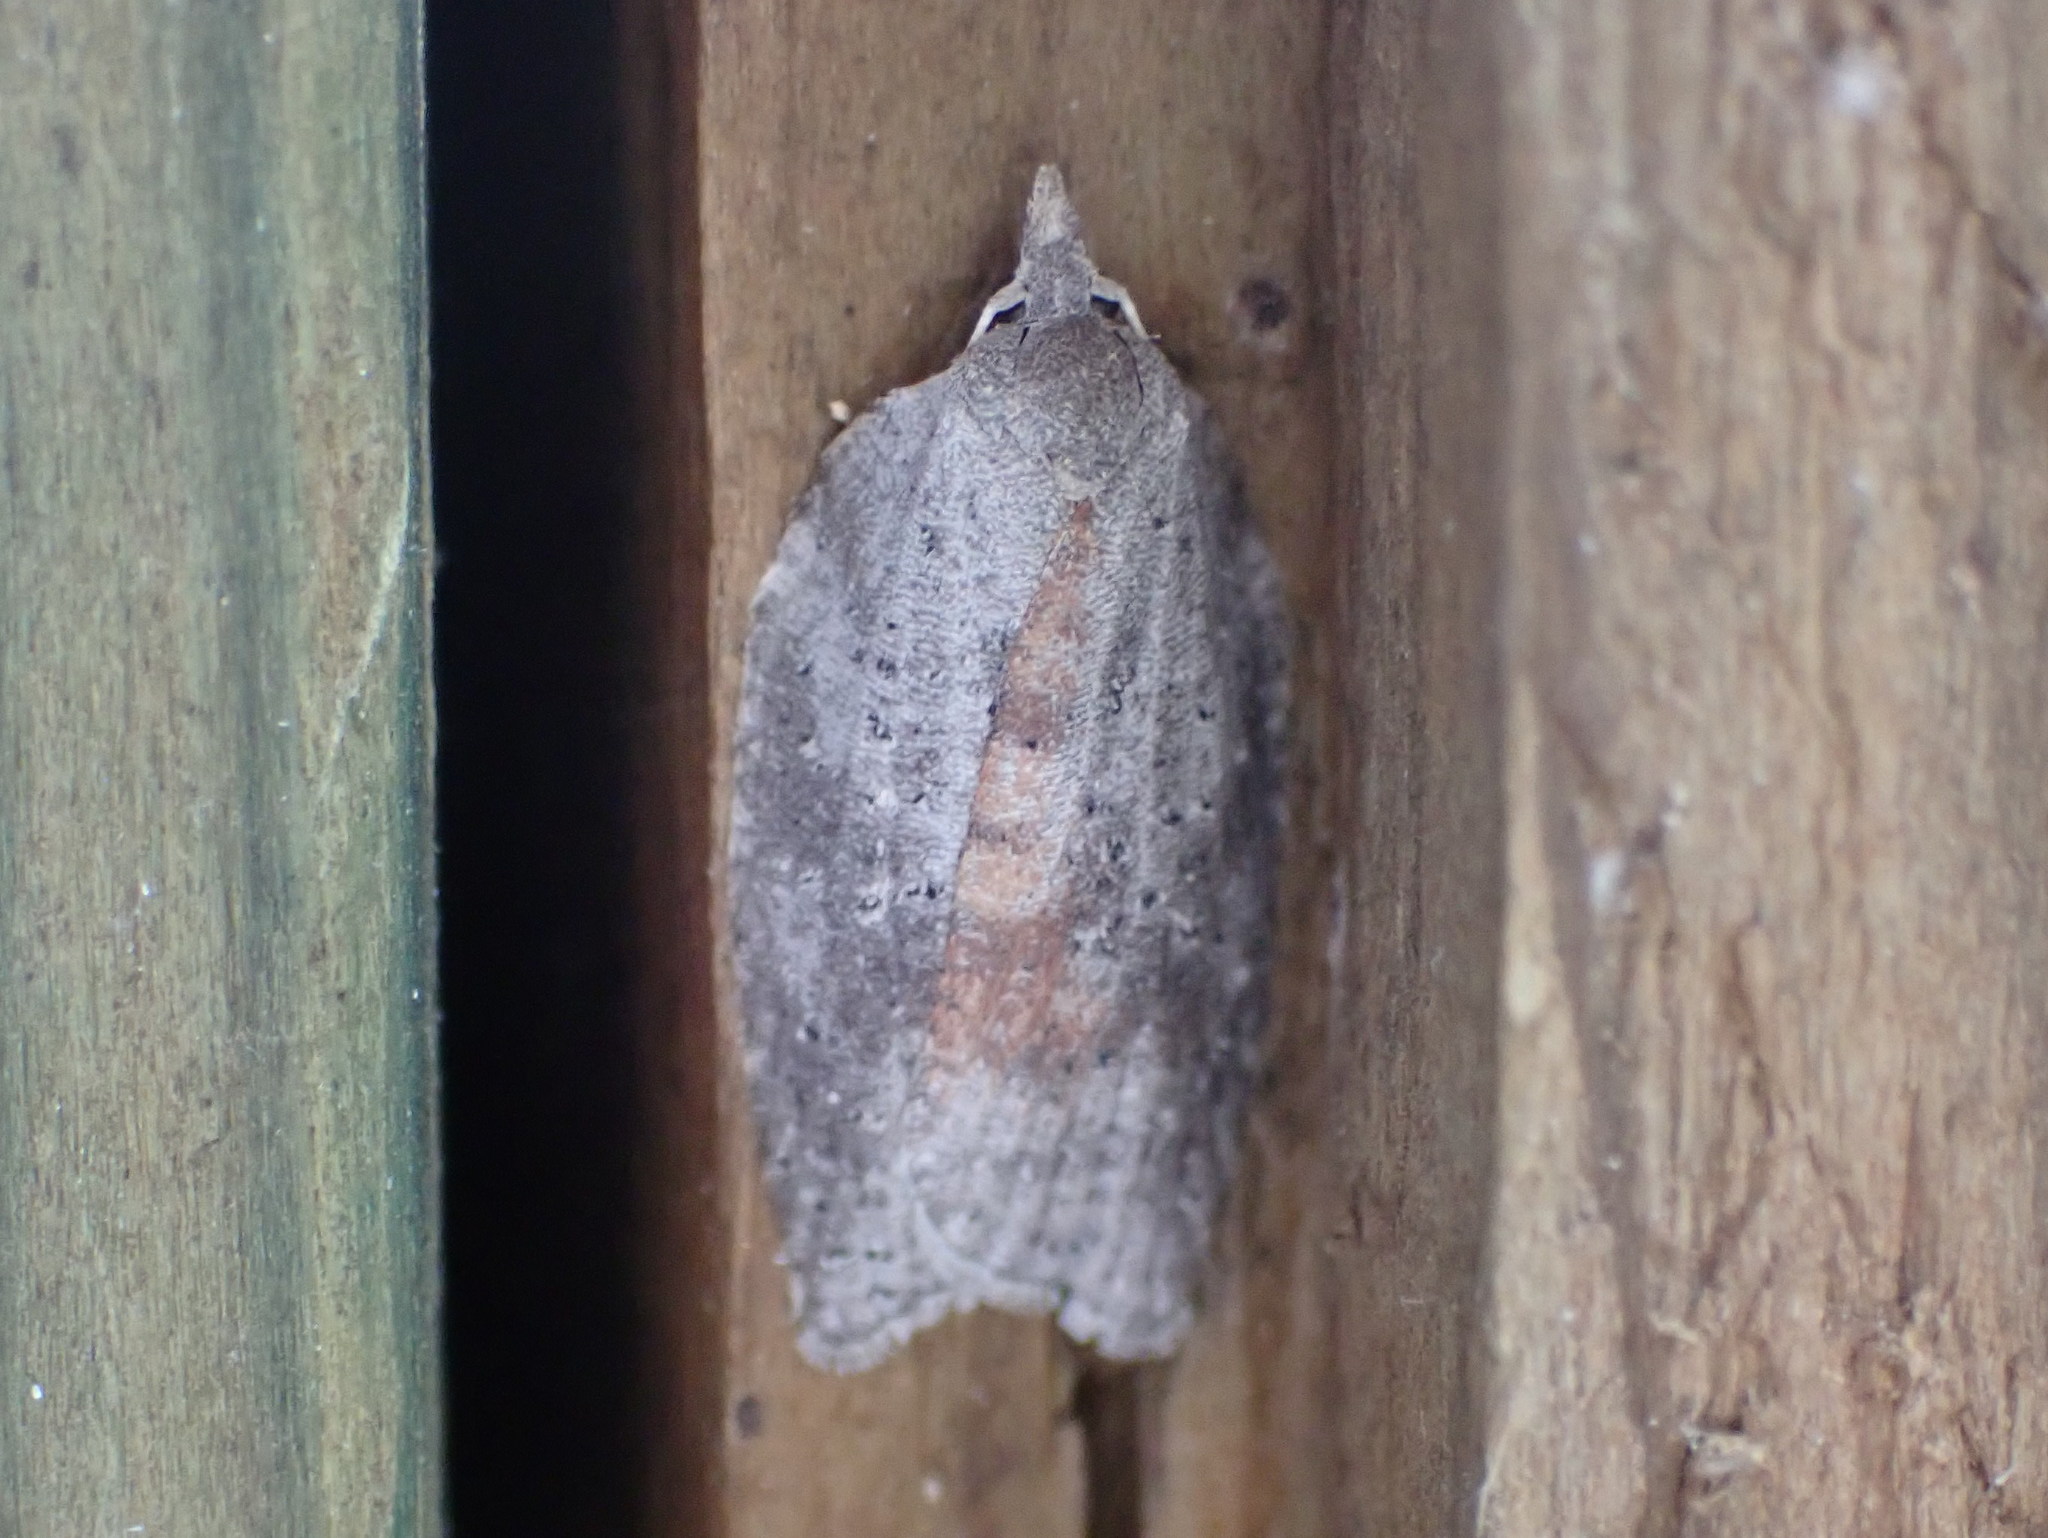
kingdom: Animalia
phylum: Arthropoda
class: Insecta
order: Lepidoptera
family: Tortricidae
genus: Amorbia
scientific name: Amorbia humerosana
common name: White-lined leafroller moth
